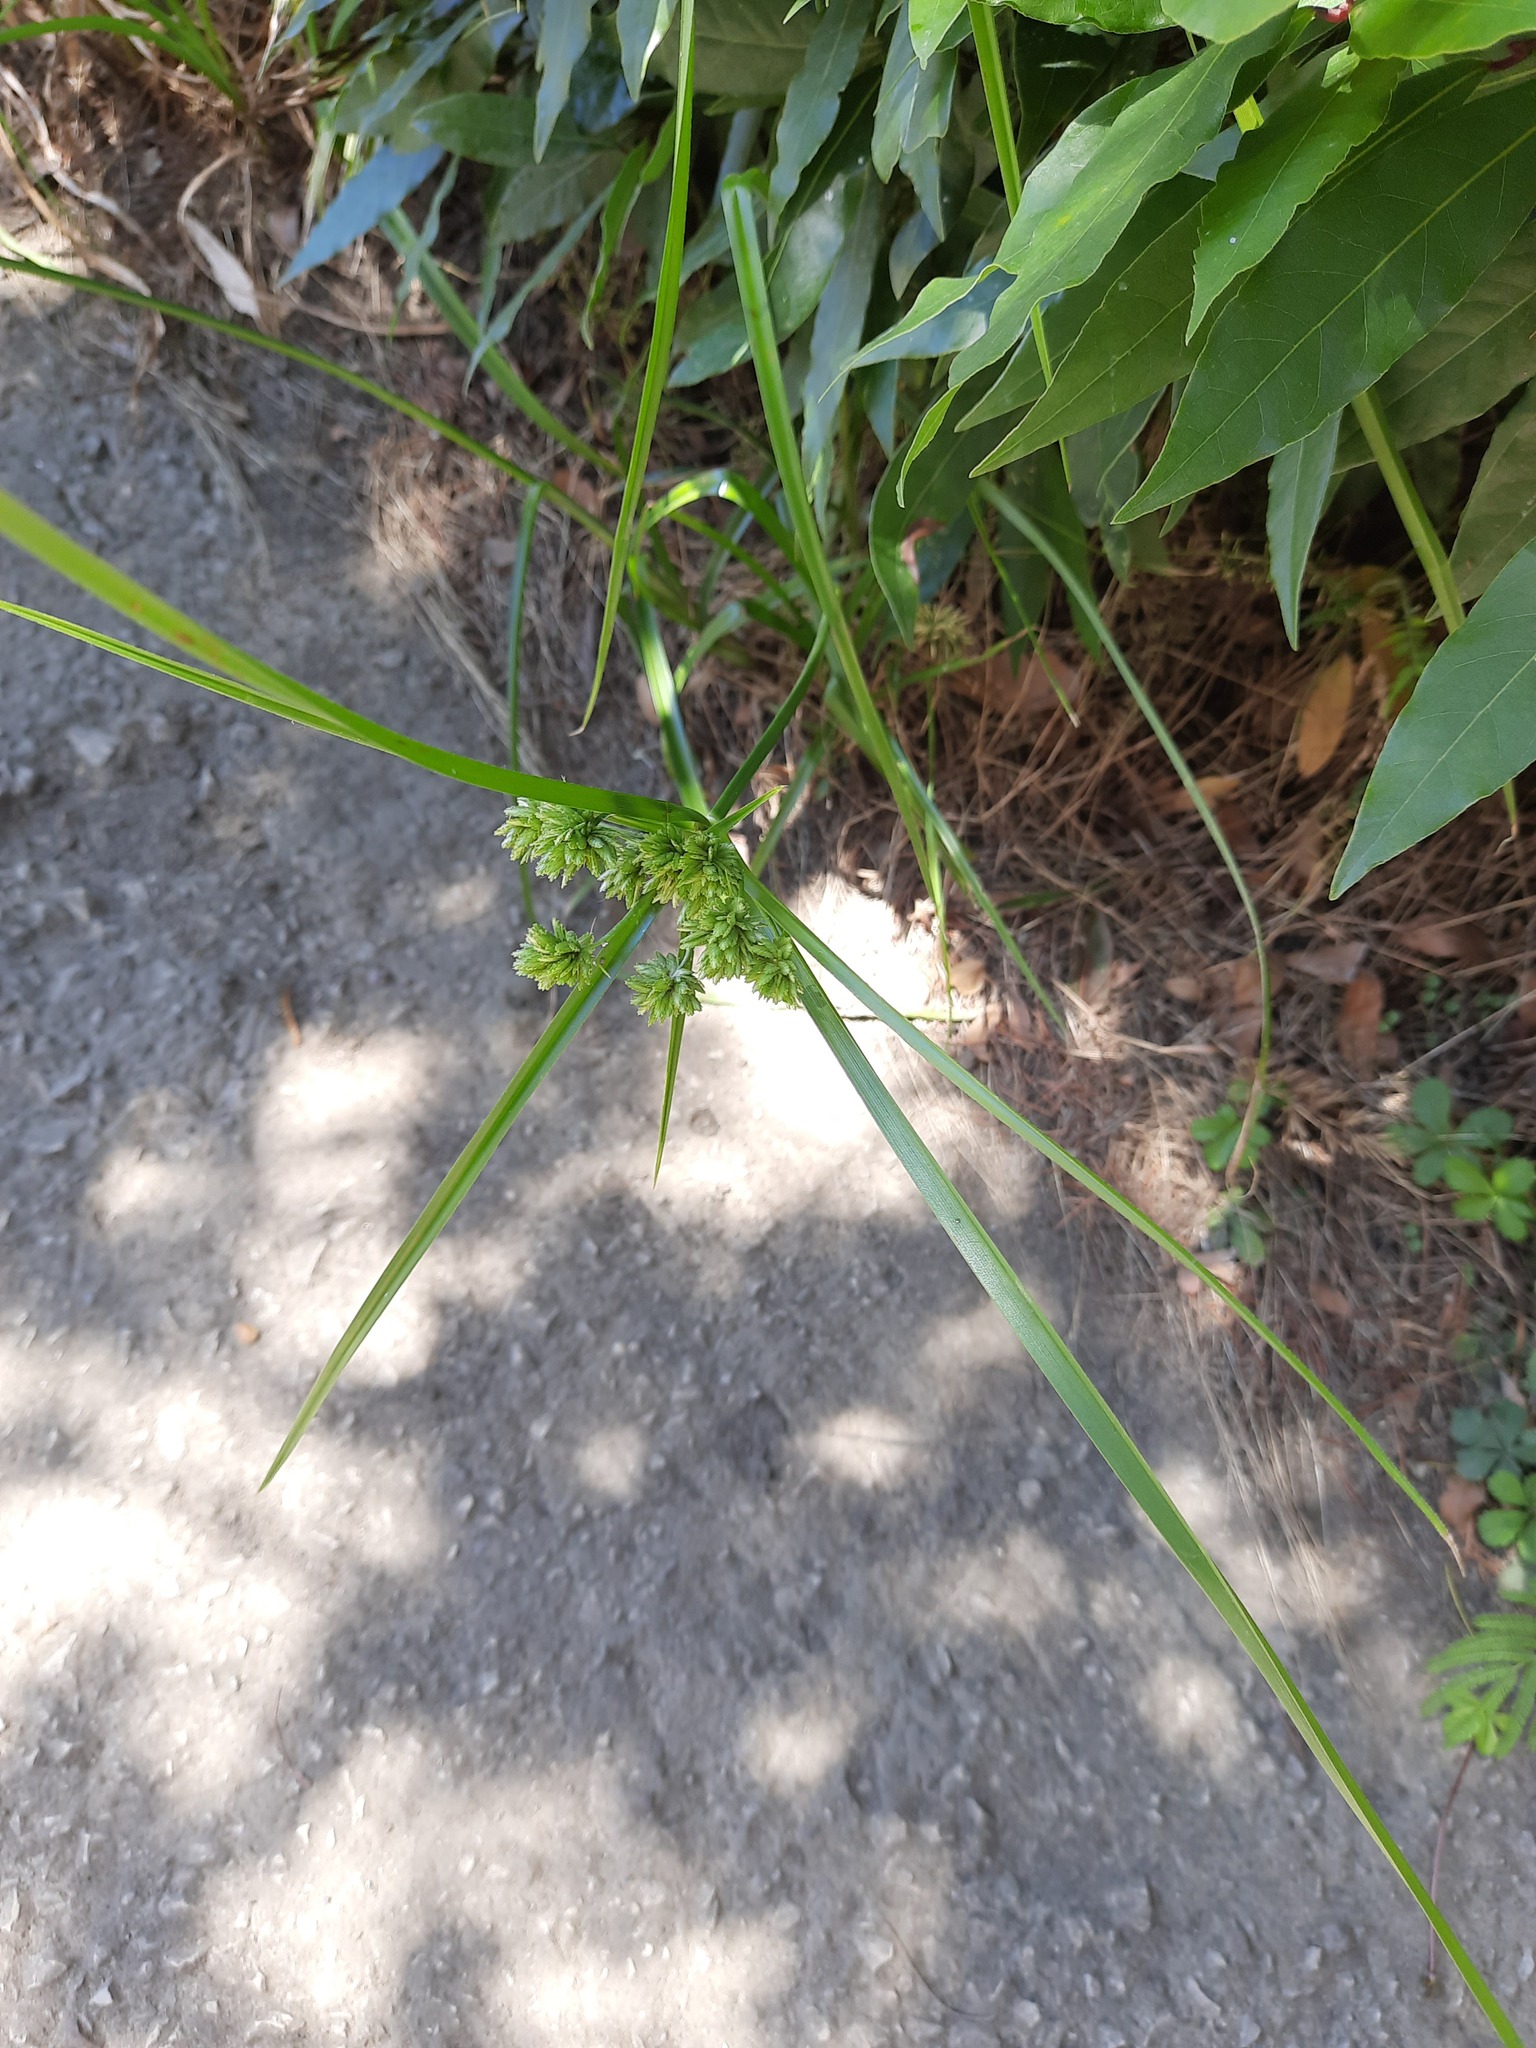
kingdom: Plantae
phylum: Tracheophyta
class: Liliopsida
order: Poales
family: Cyperaceae
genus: Cyperus
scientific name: Cyperus eragrostis
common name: Tall flatsedge
